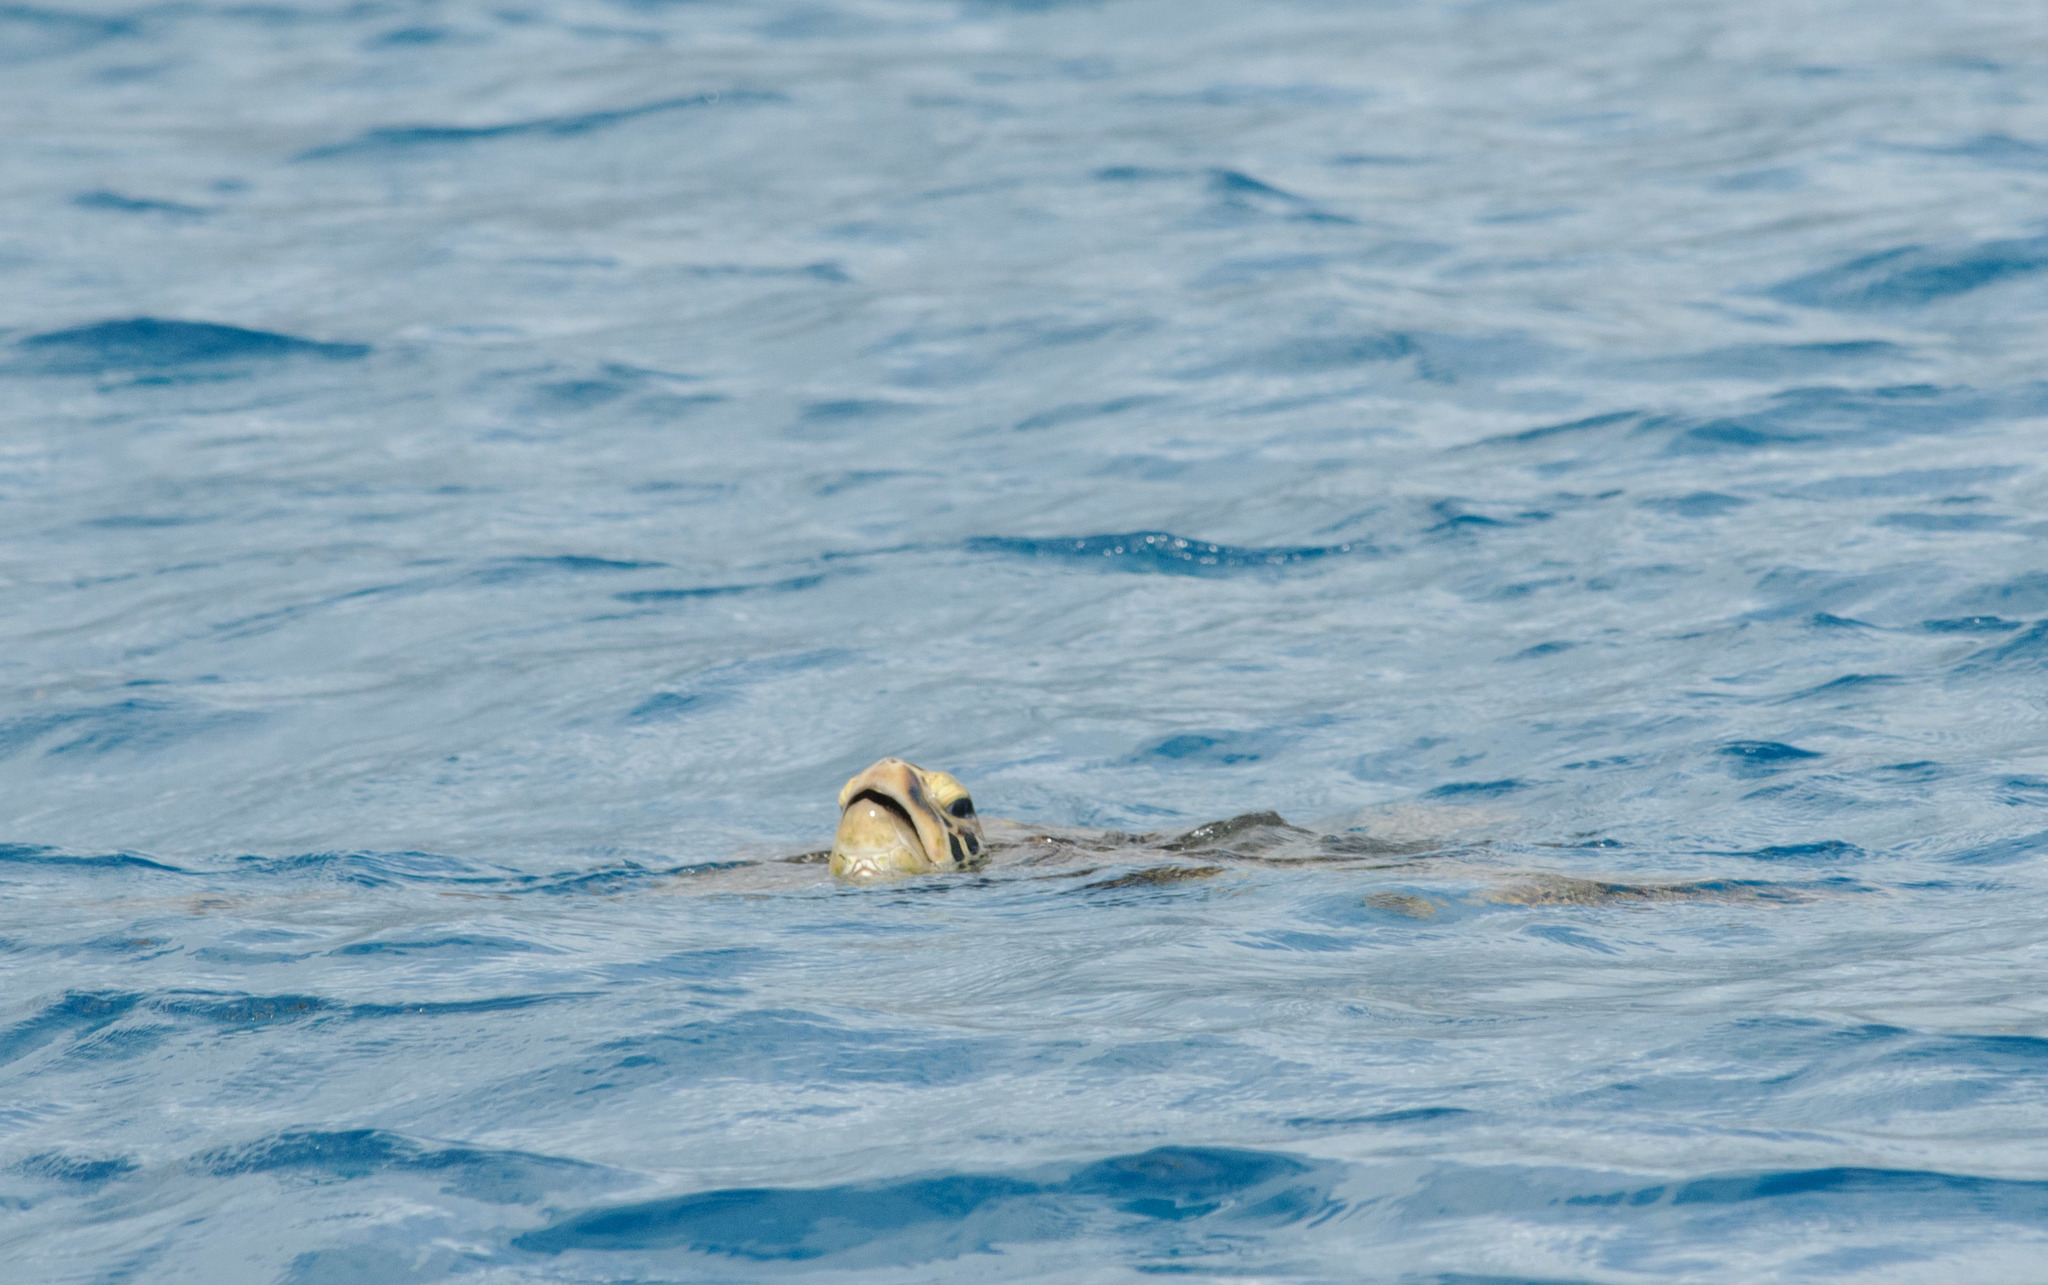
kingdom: Animalia
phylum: Chordata
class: Testudines
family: Cheloniidae
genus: Chelonia
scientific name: Chelonia mydas
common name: Green turtle
